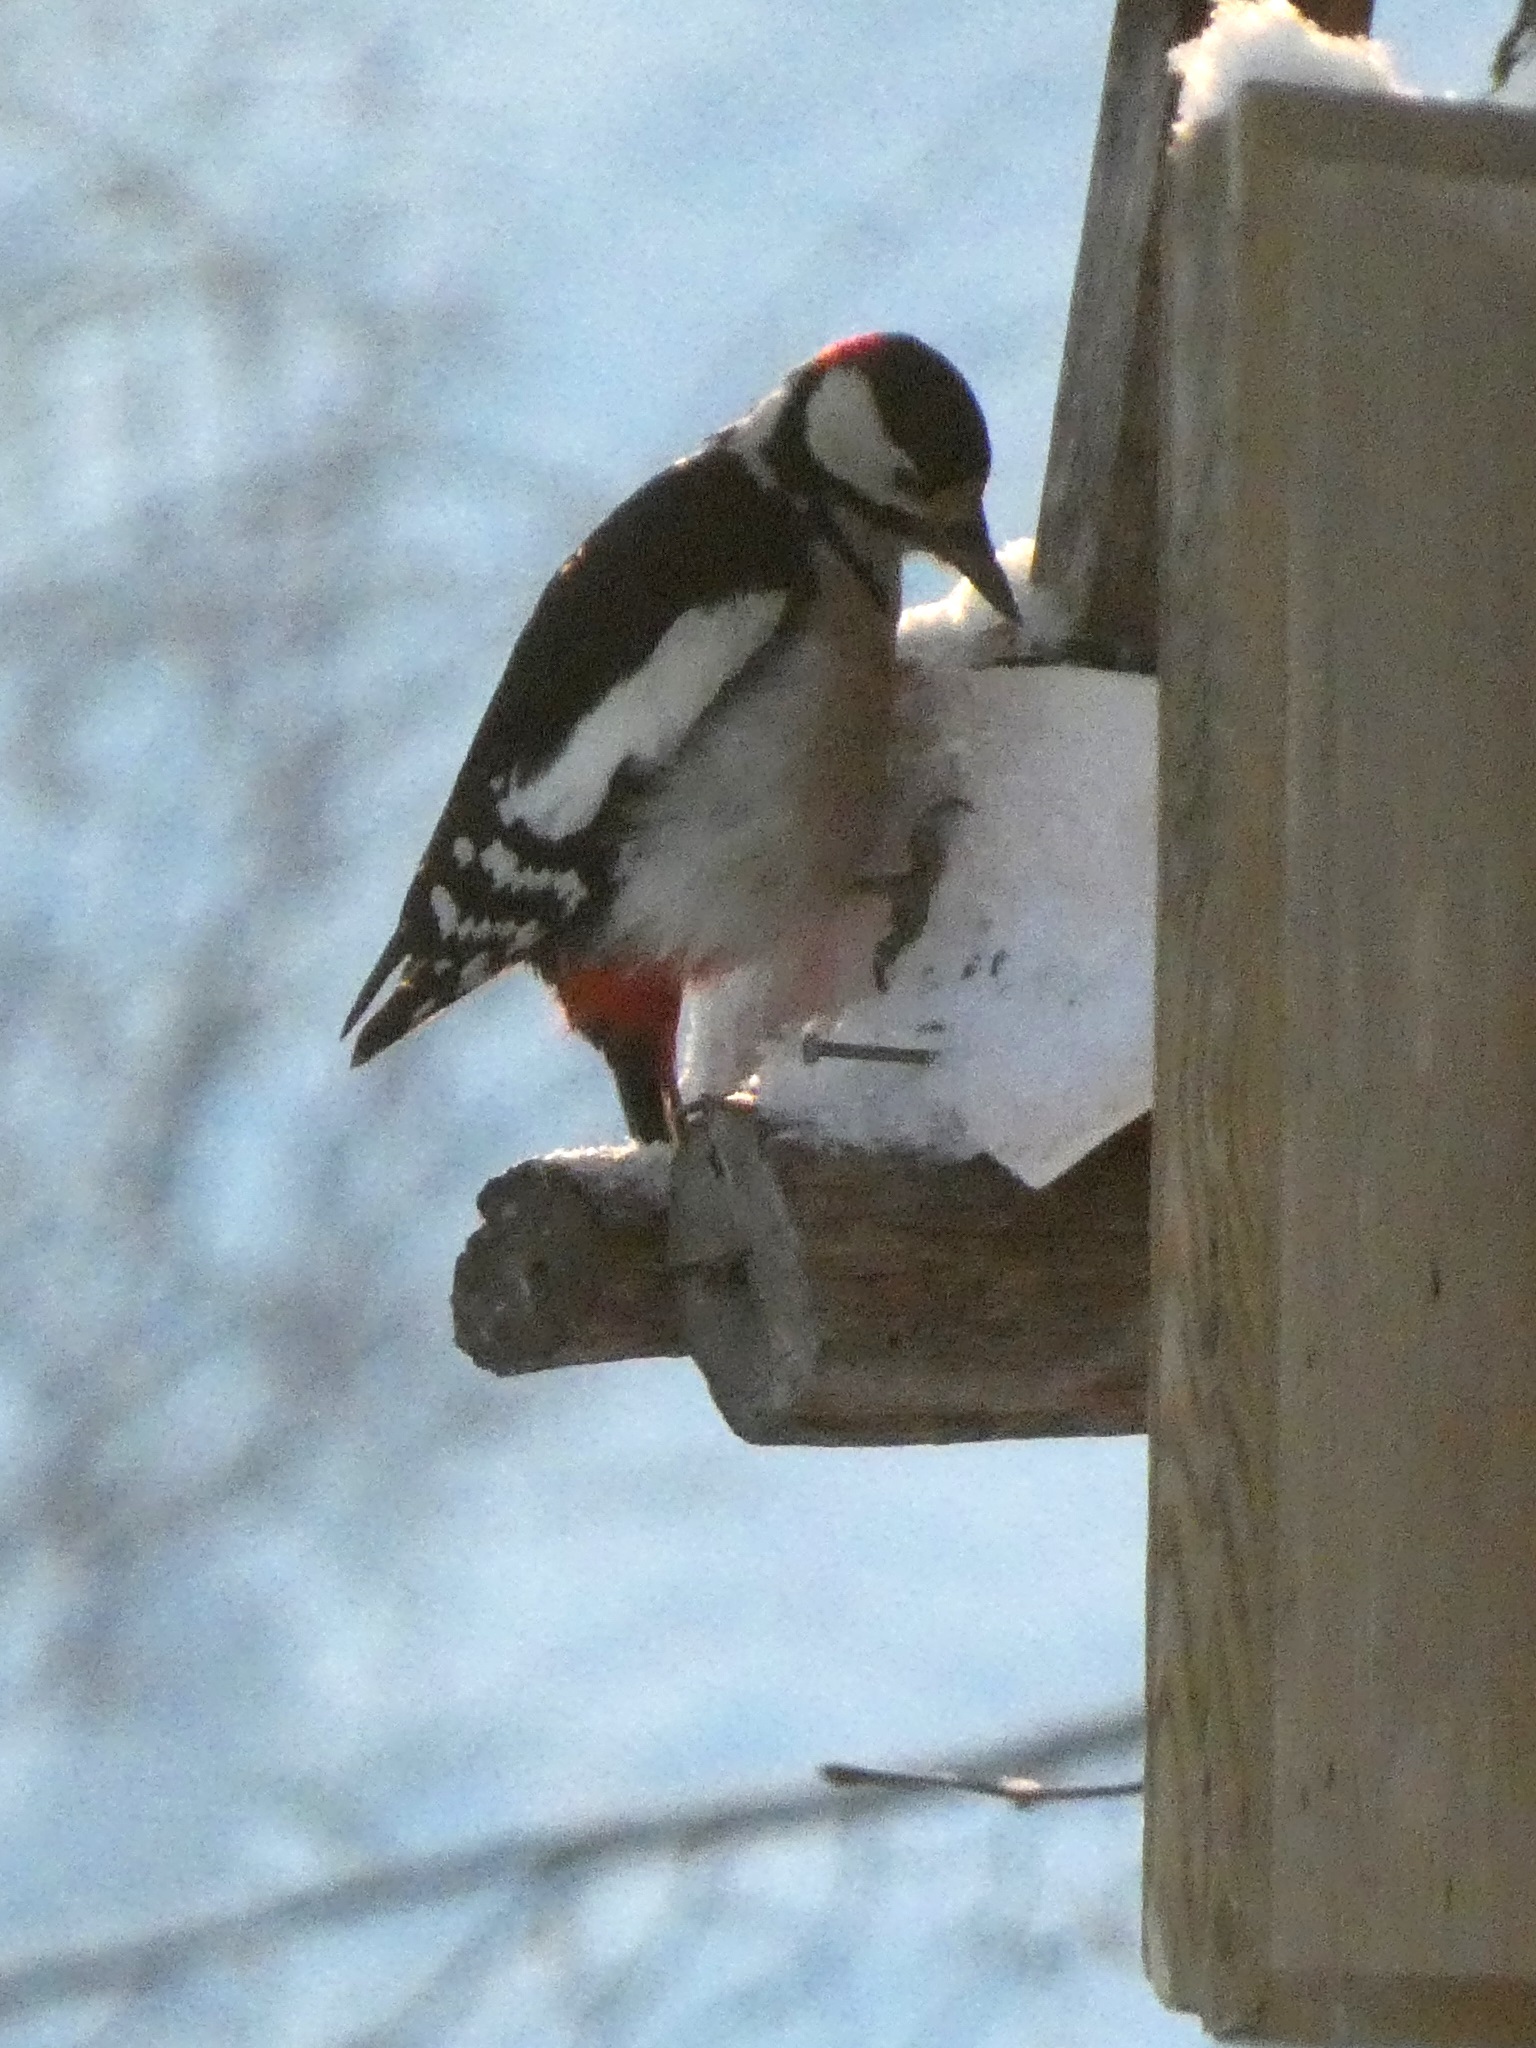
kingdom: Animalia
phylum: Chordata
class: Aves
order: Piciformes
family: Picidae
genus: Dendrocopos
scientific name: Dendrocopos major
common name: Great spotted woodpecker
